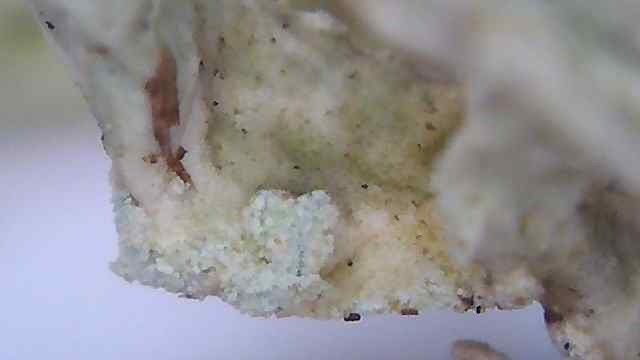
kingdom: Fungi
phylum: Ascomycota
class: Lecanoromycetes
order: Lecanorales
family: Parmeliaceae
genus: Evernia
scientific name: Evernia prunastri
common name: Oak moss
